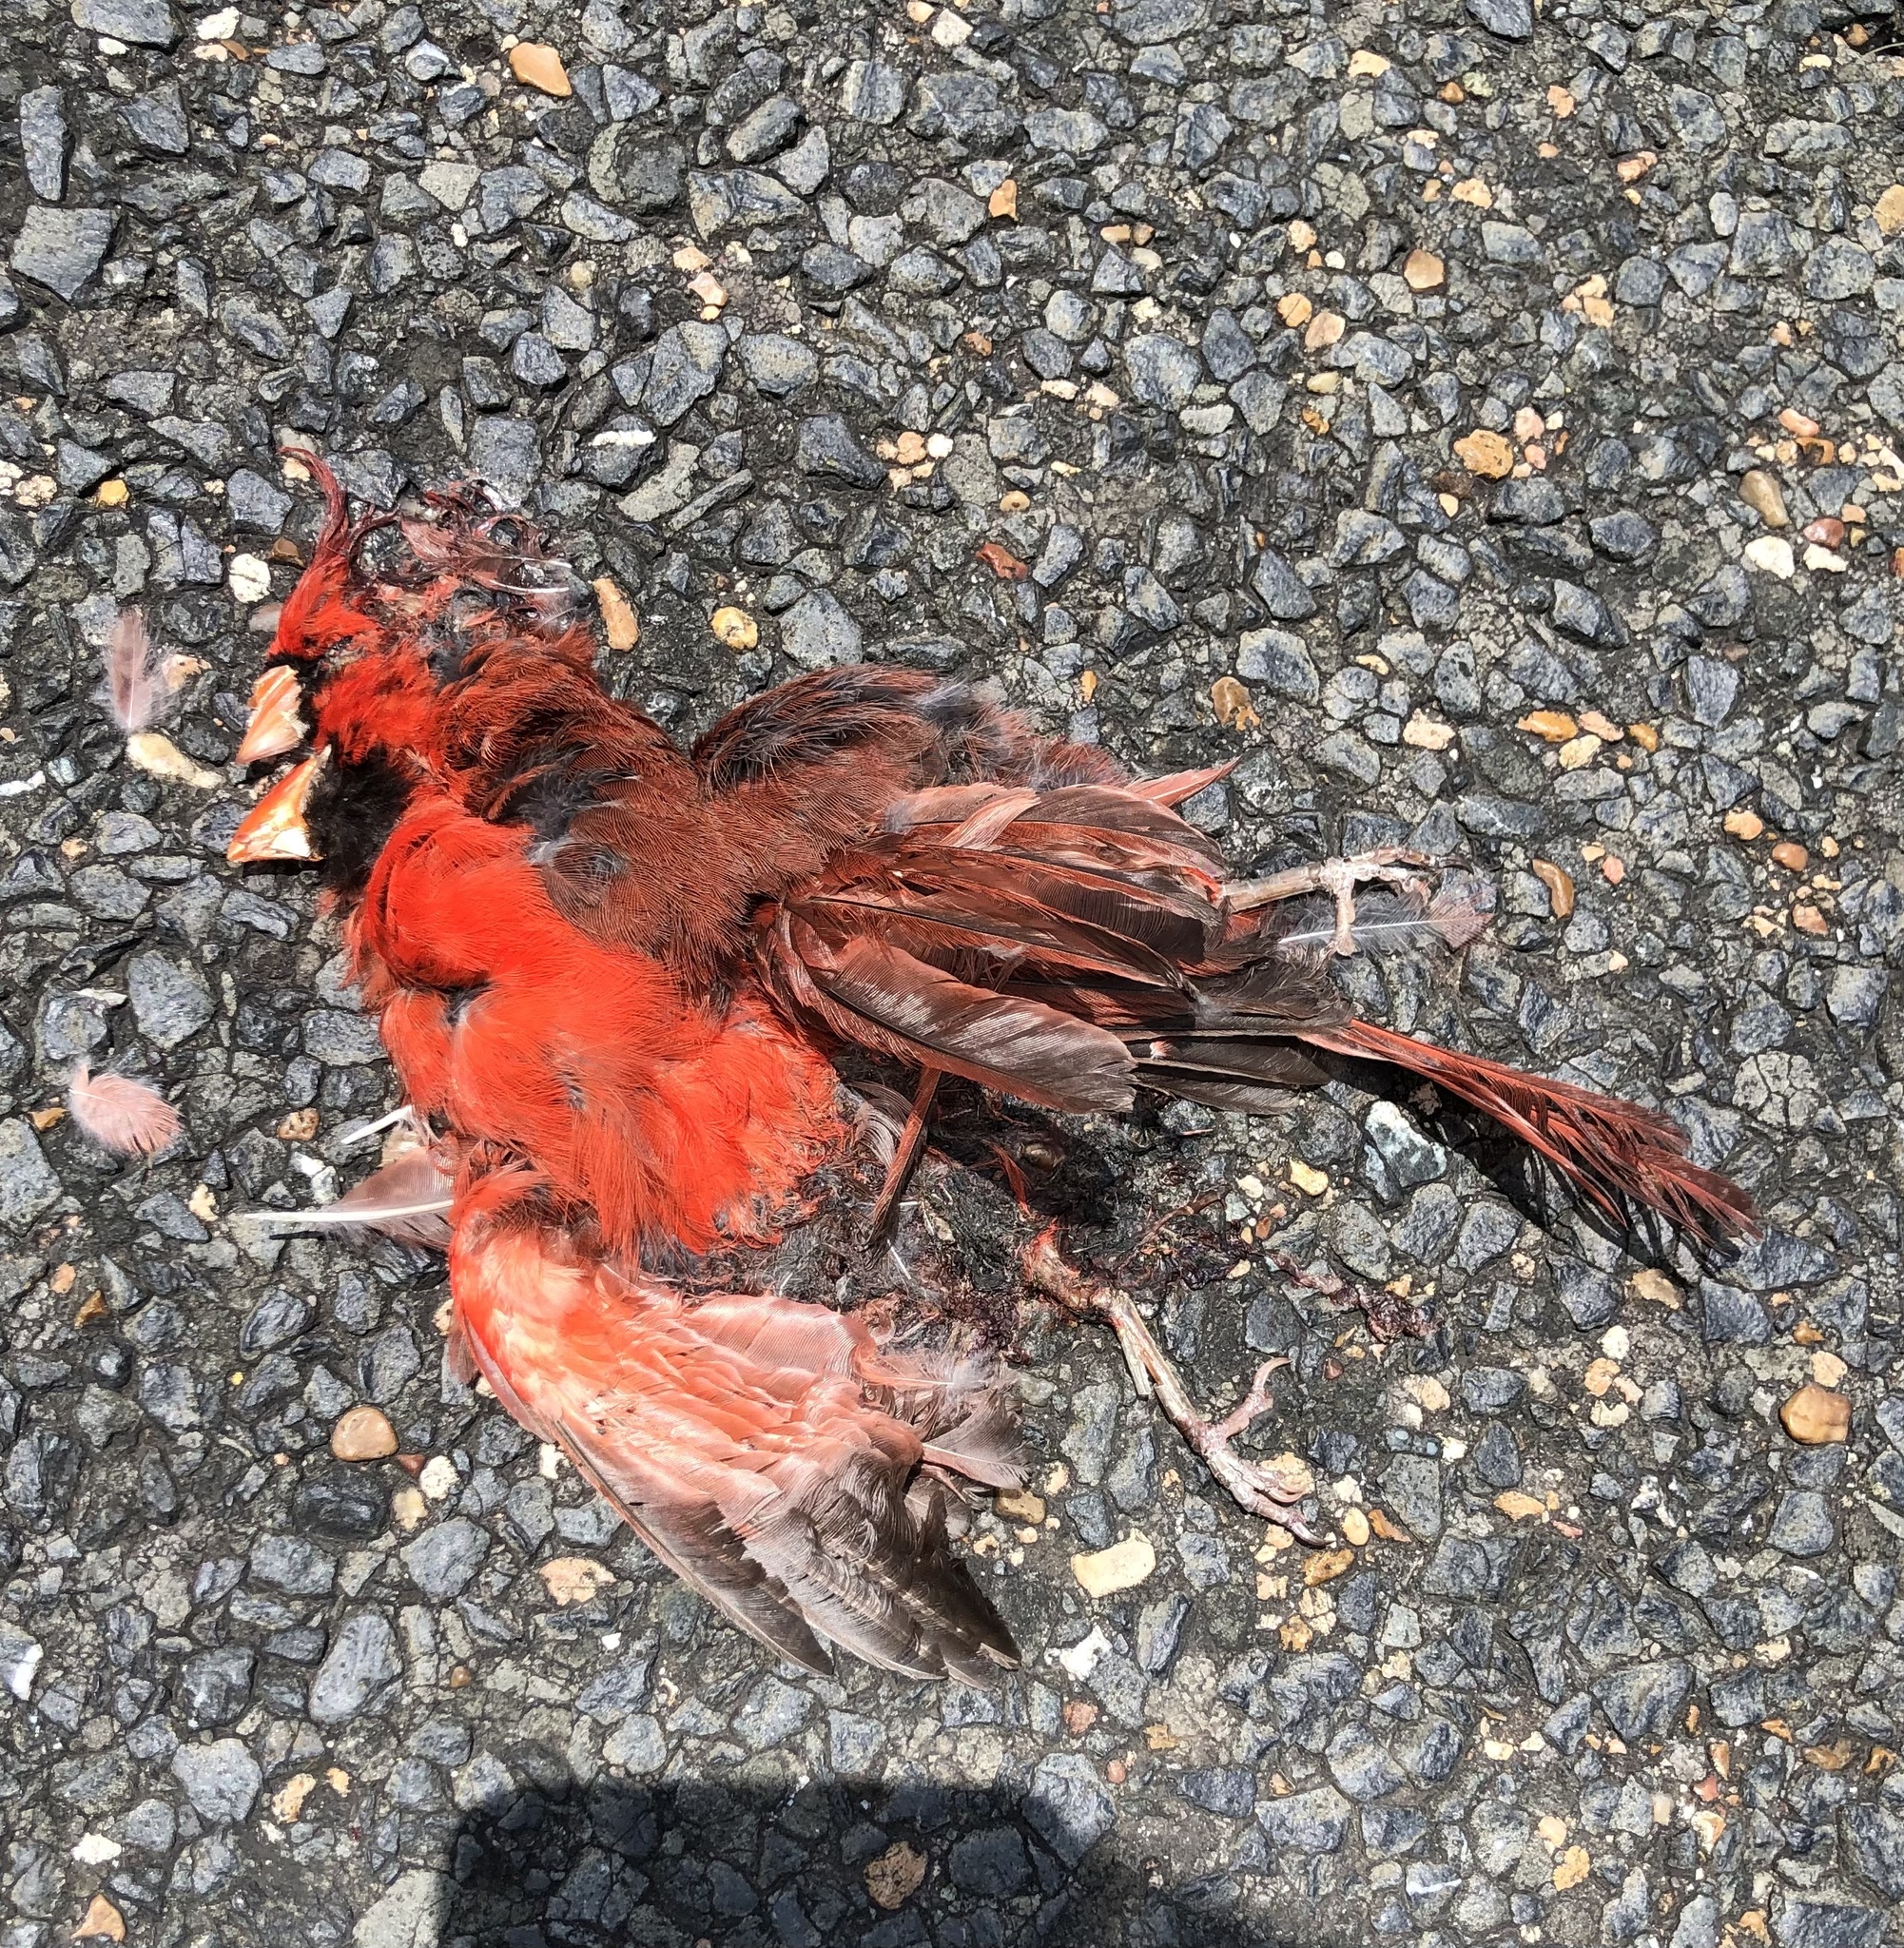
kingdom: Animalia
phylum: Chordata
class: Aves
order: Passeriformes
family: Cardinalidae
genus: Cardinalis
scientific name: Cardinalis cardinalis
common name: Northern cardinal
